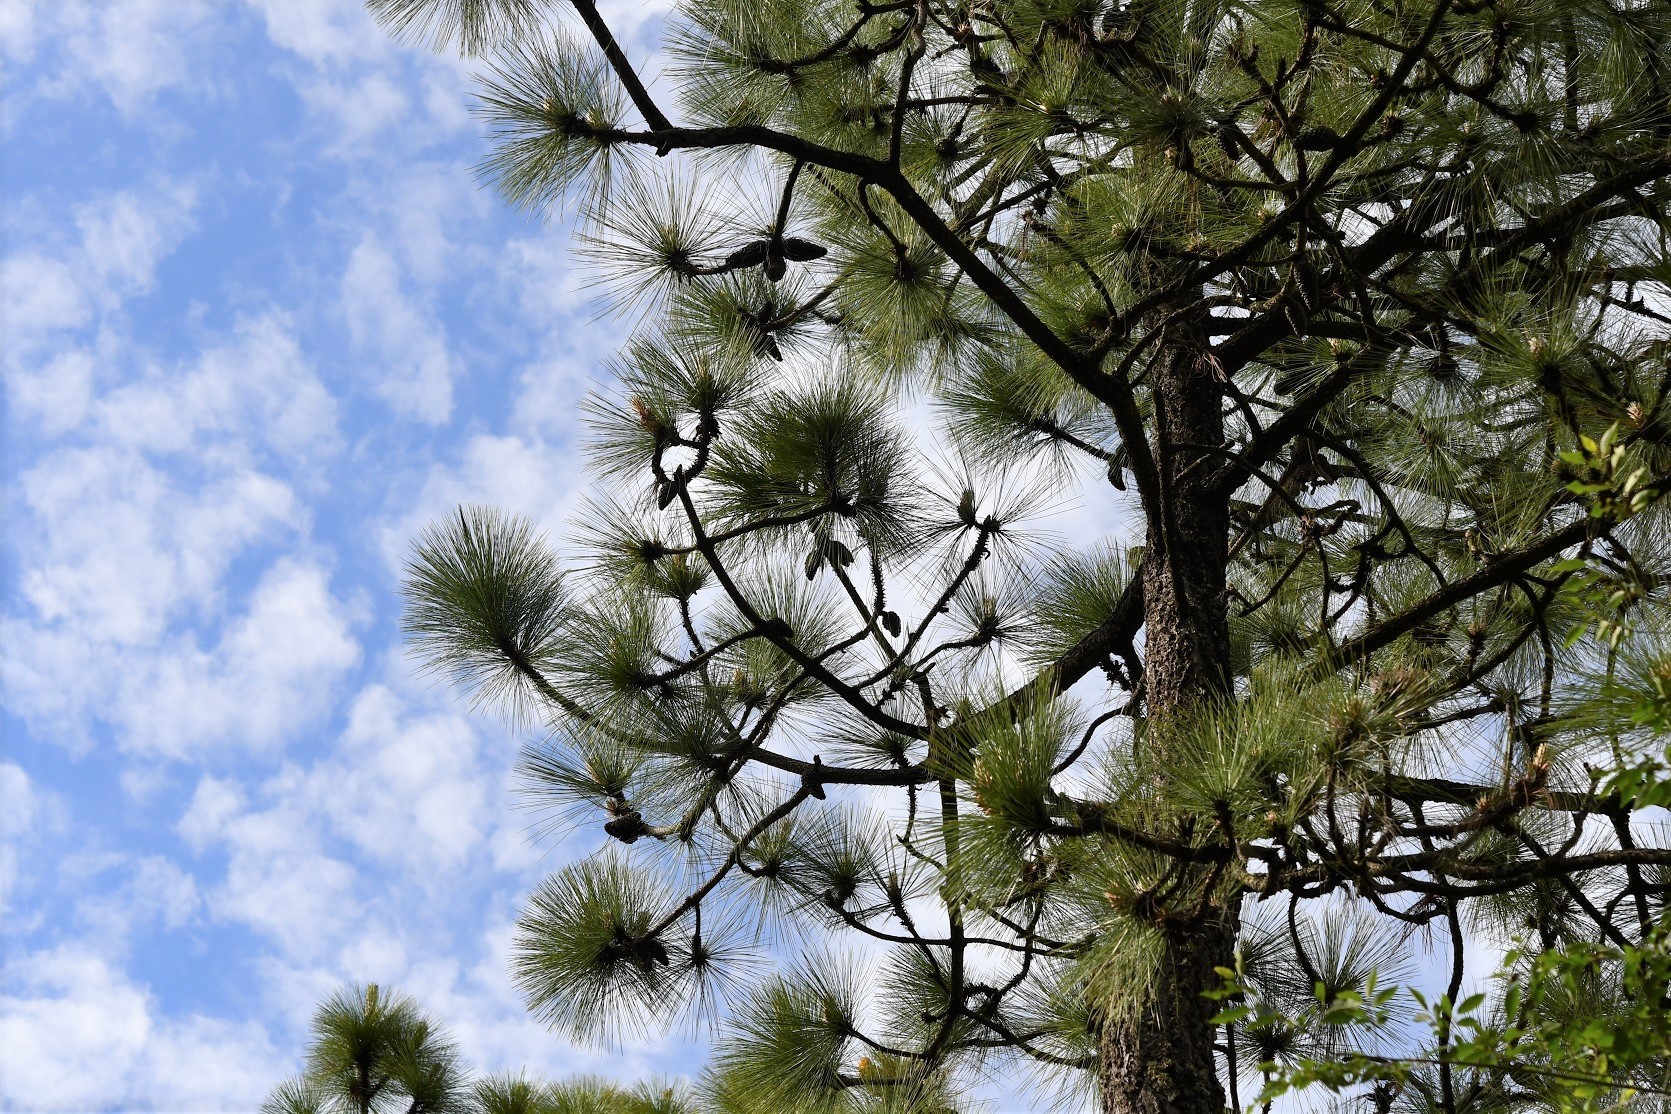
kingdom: Plantae
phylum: Tracheophyta
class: Pinopsida
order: Pinales
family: Pinaceae
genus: Pinus
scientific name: Pinus montezumae
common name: Montezuma pine
